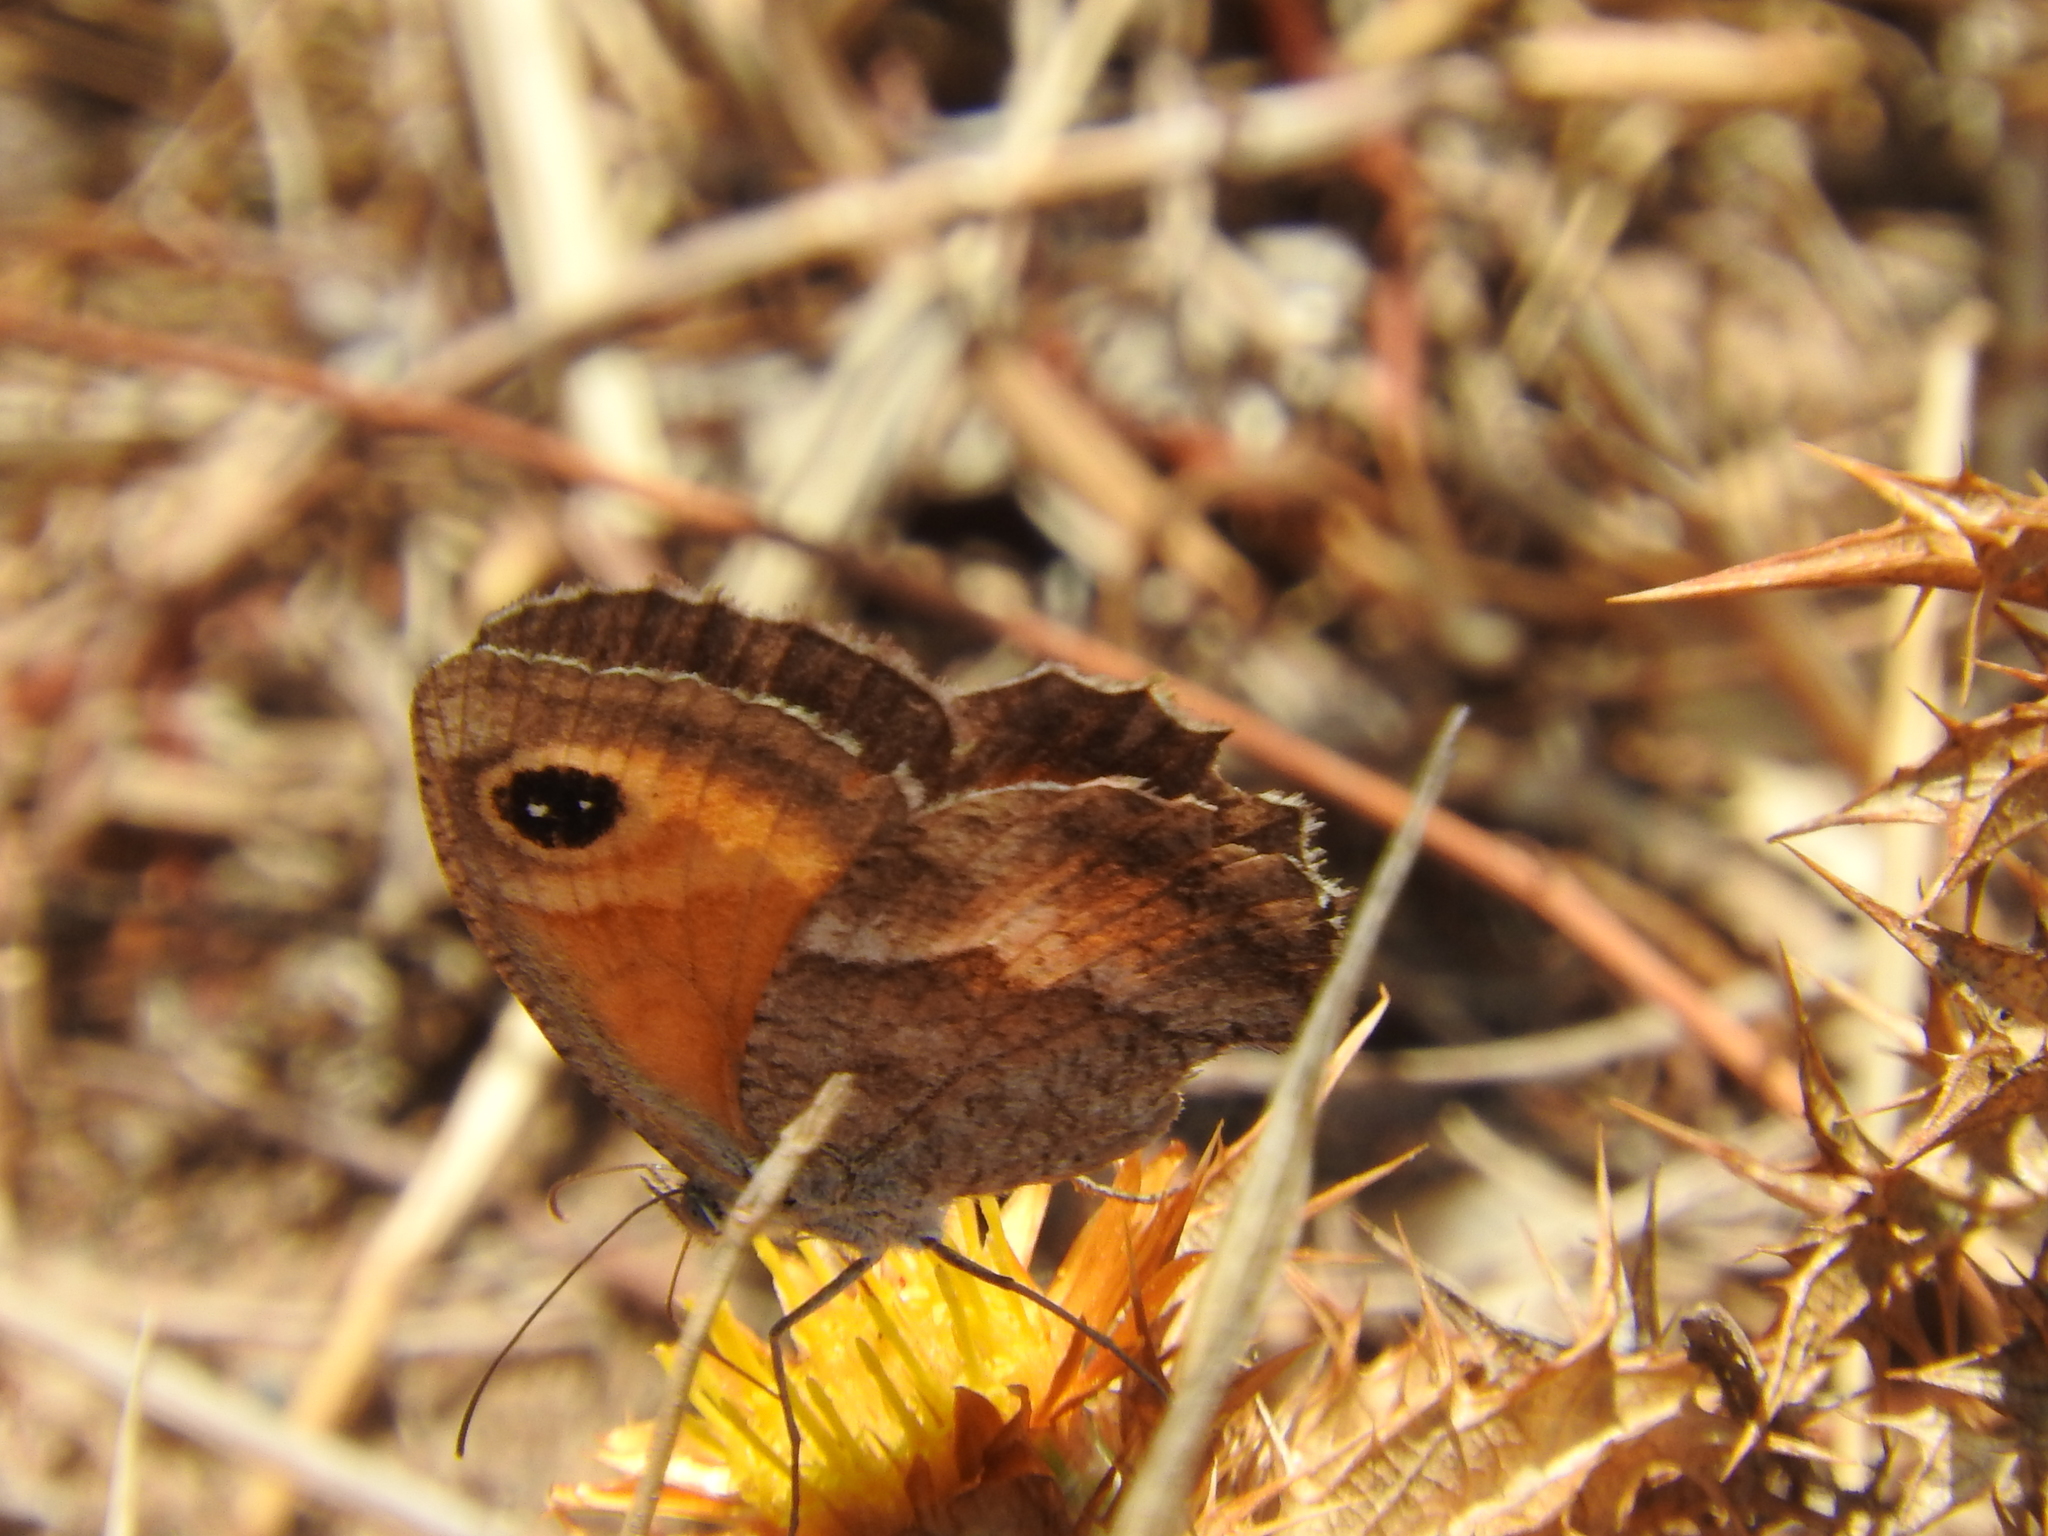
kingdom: Animalia
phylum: Arthropoda
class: Insecta
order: Lepidoptera
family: Nymphalidae
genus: Pyronia
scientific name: Pyronia cecilia
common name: Southern gatekeeper
